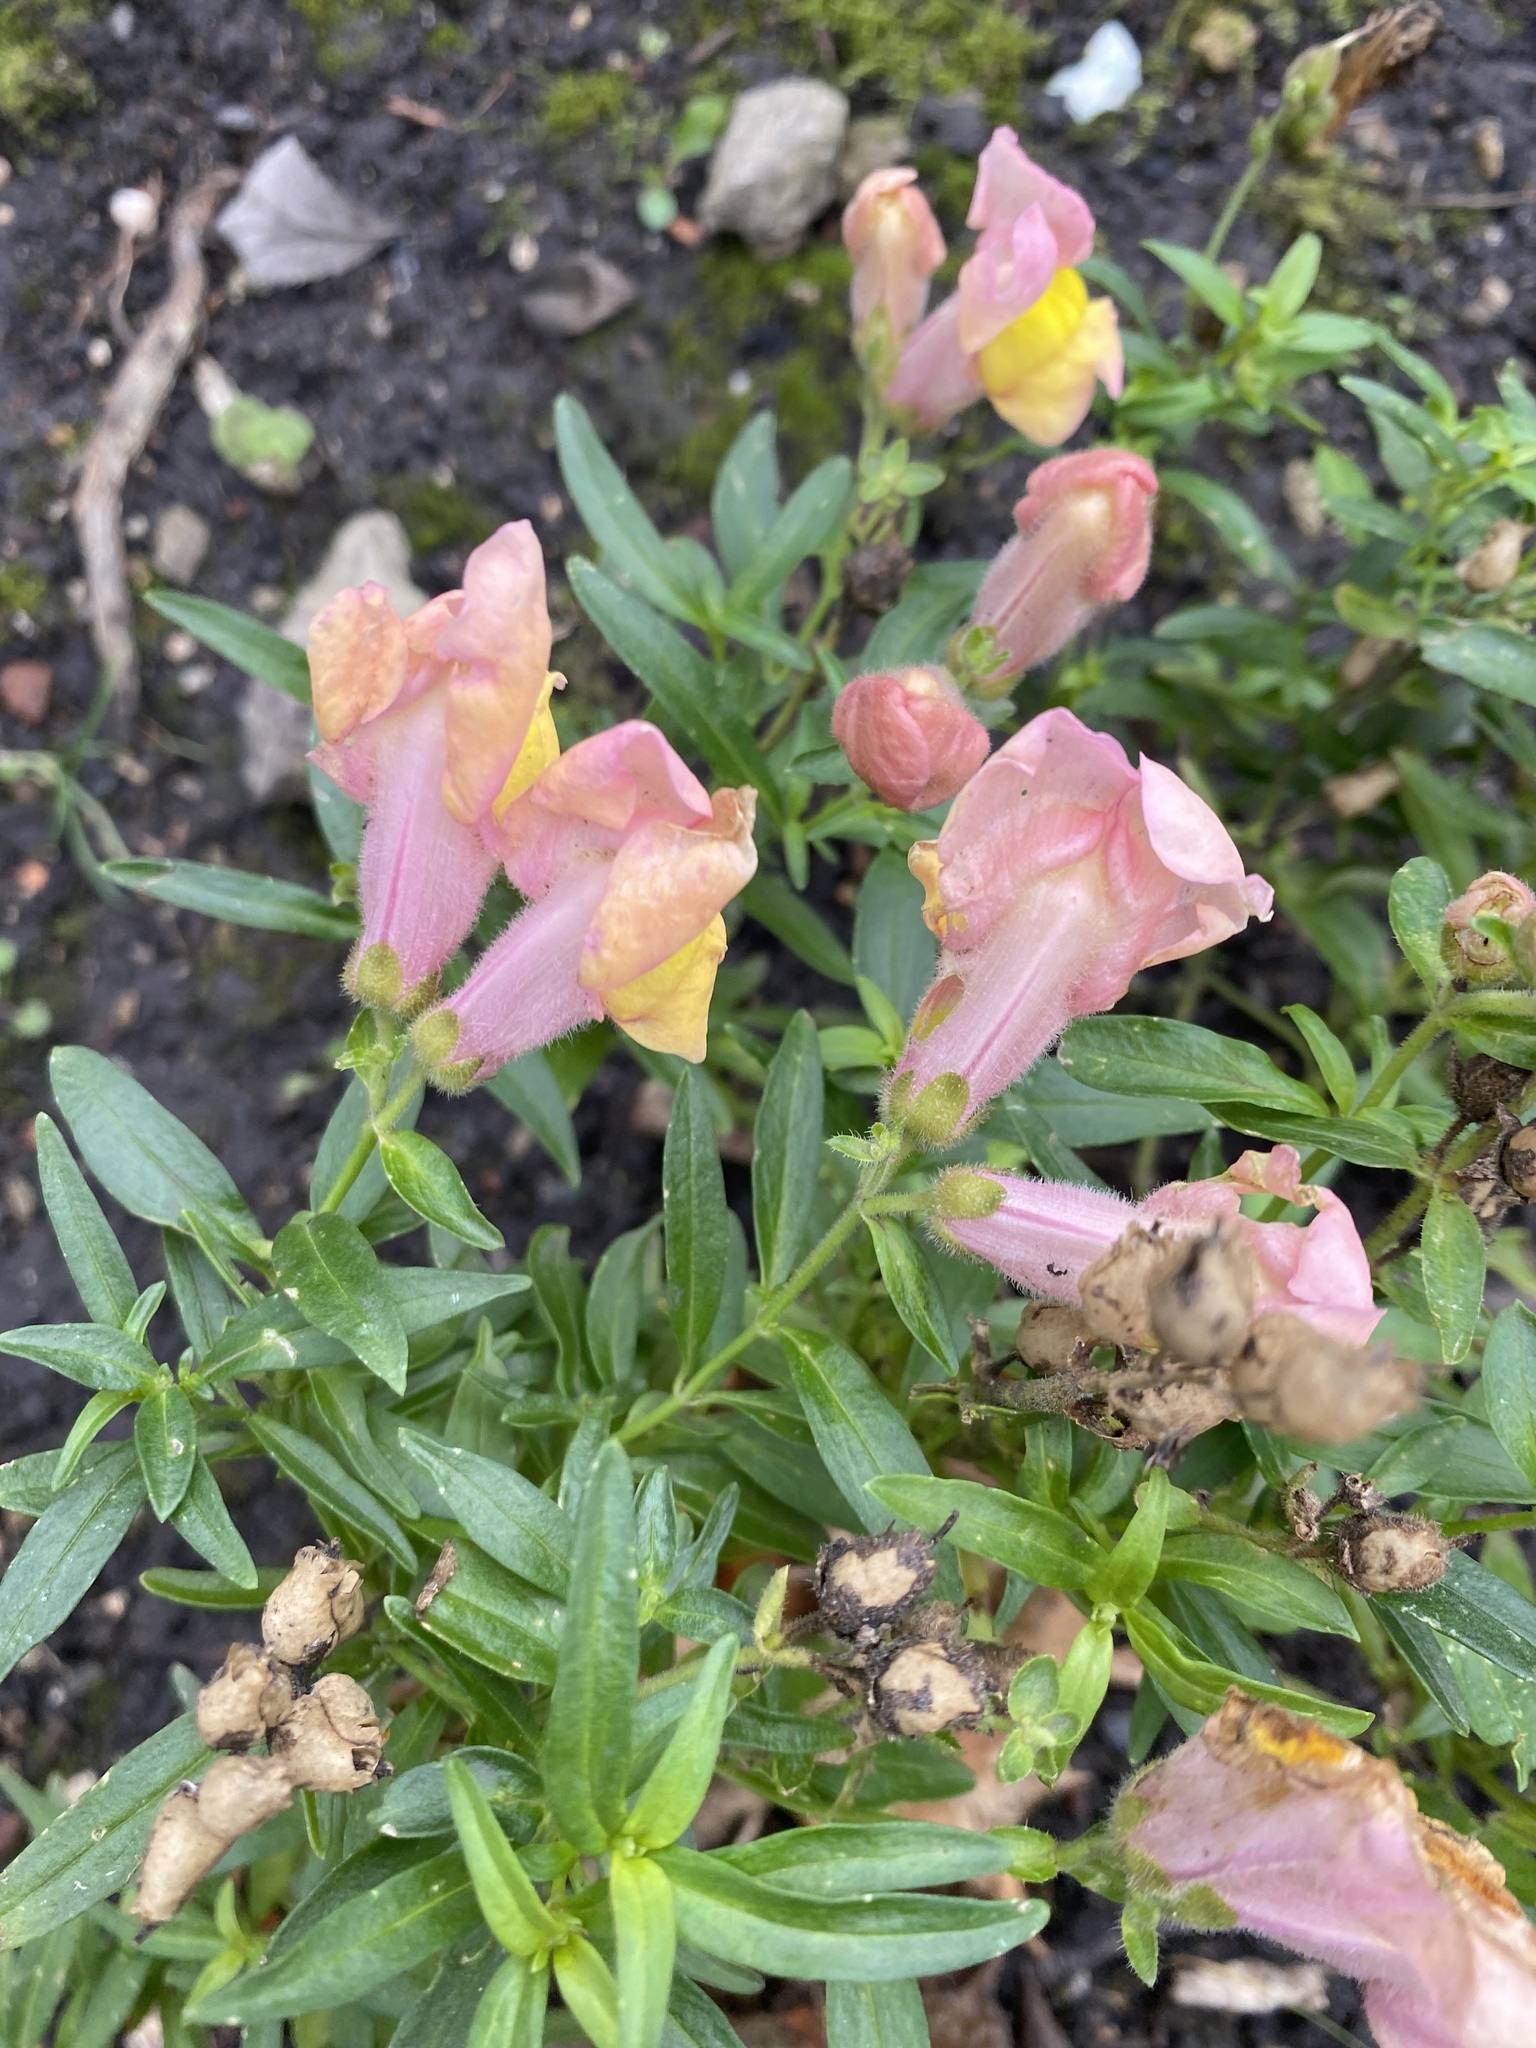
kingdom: Plantae
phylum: Tracheophyta
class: Magnoliopsida
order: Lamiales
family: Plantaginaceae
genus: Antirrhinum
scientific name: Antirrhinum majus
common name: Snapdragon
